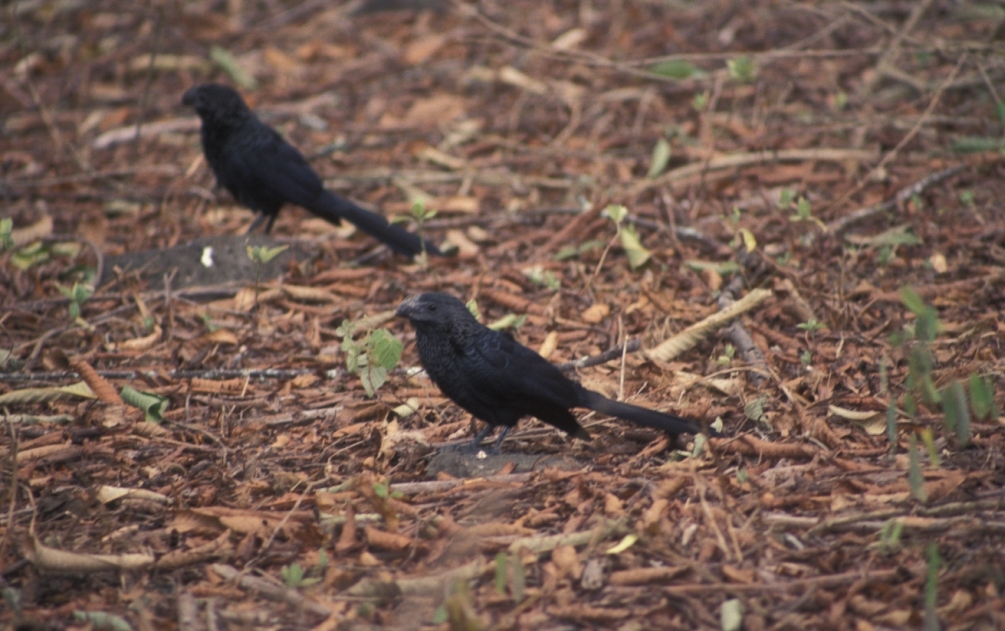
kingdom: Animalia
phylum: Chordata
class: Aves
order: Cuculiformes
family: Cuculidae
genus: Crotophaga
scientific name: Crotophaga ani
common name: Smooth-billed ani
